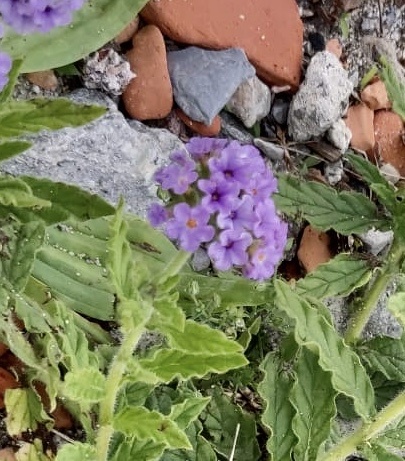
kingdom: Plantae
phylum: Tracheophyta
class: Magnoliopsida
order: Boraginales
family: Heliotropiaceae
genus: Heliotropium
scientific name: Heliotropium amplexicaule
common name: Clasping heliotrope
